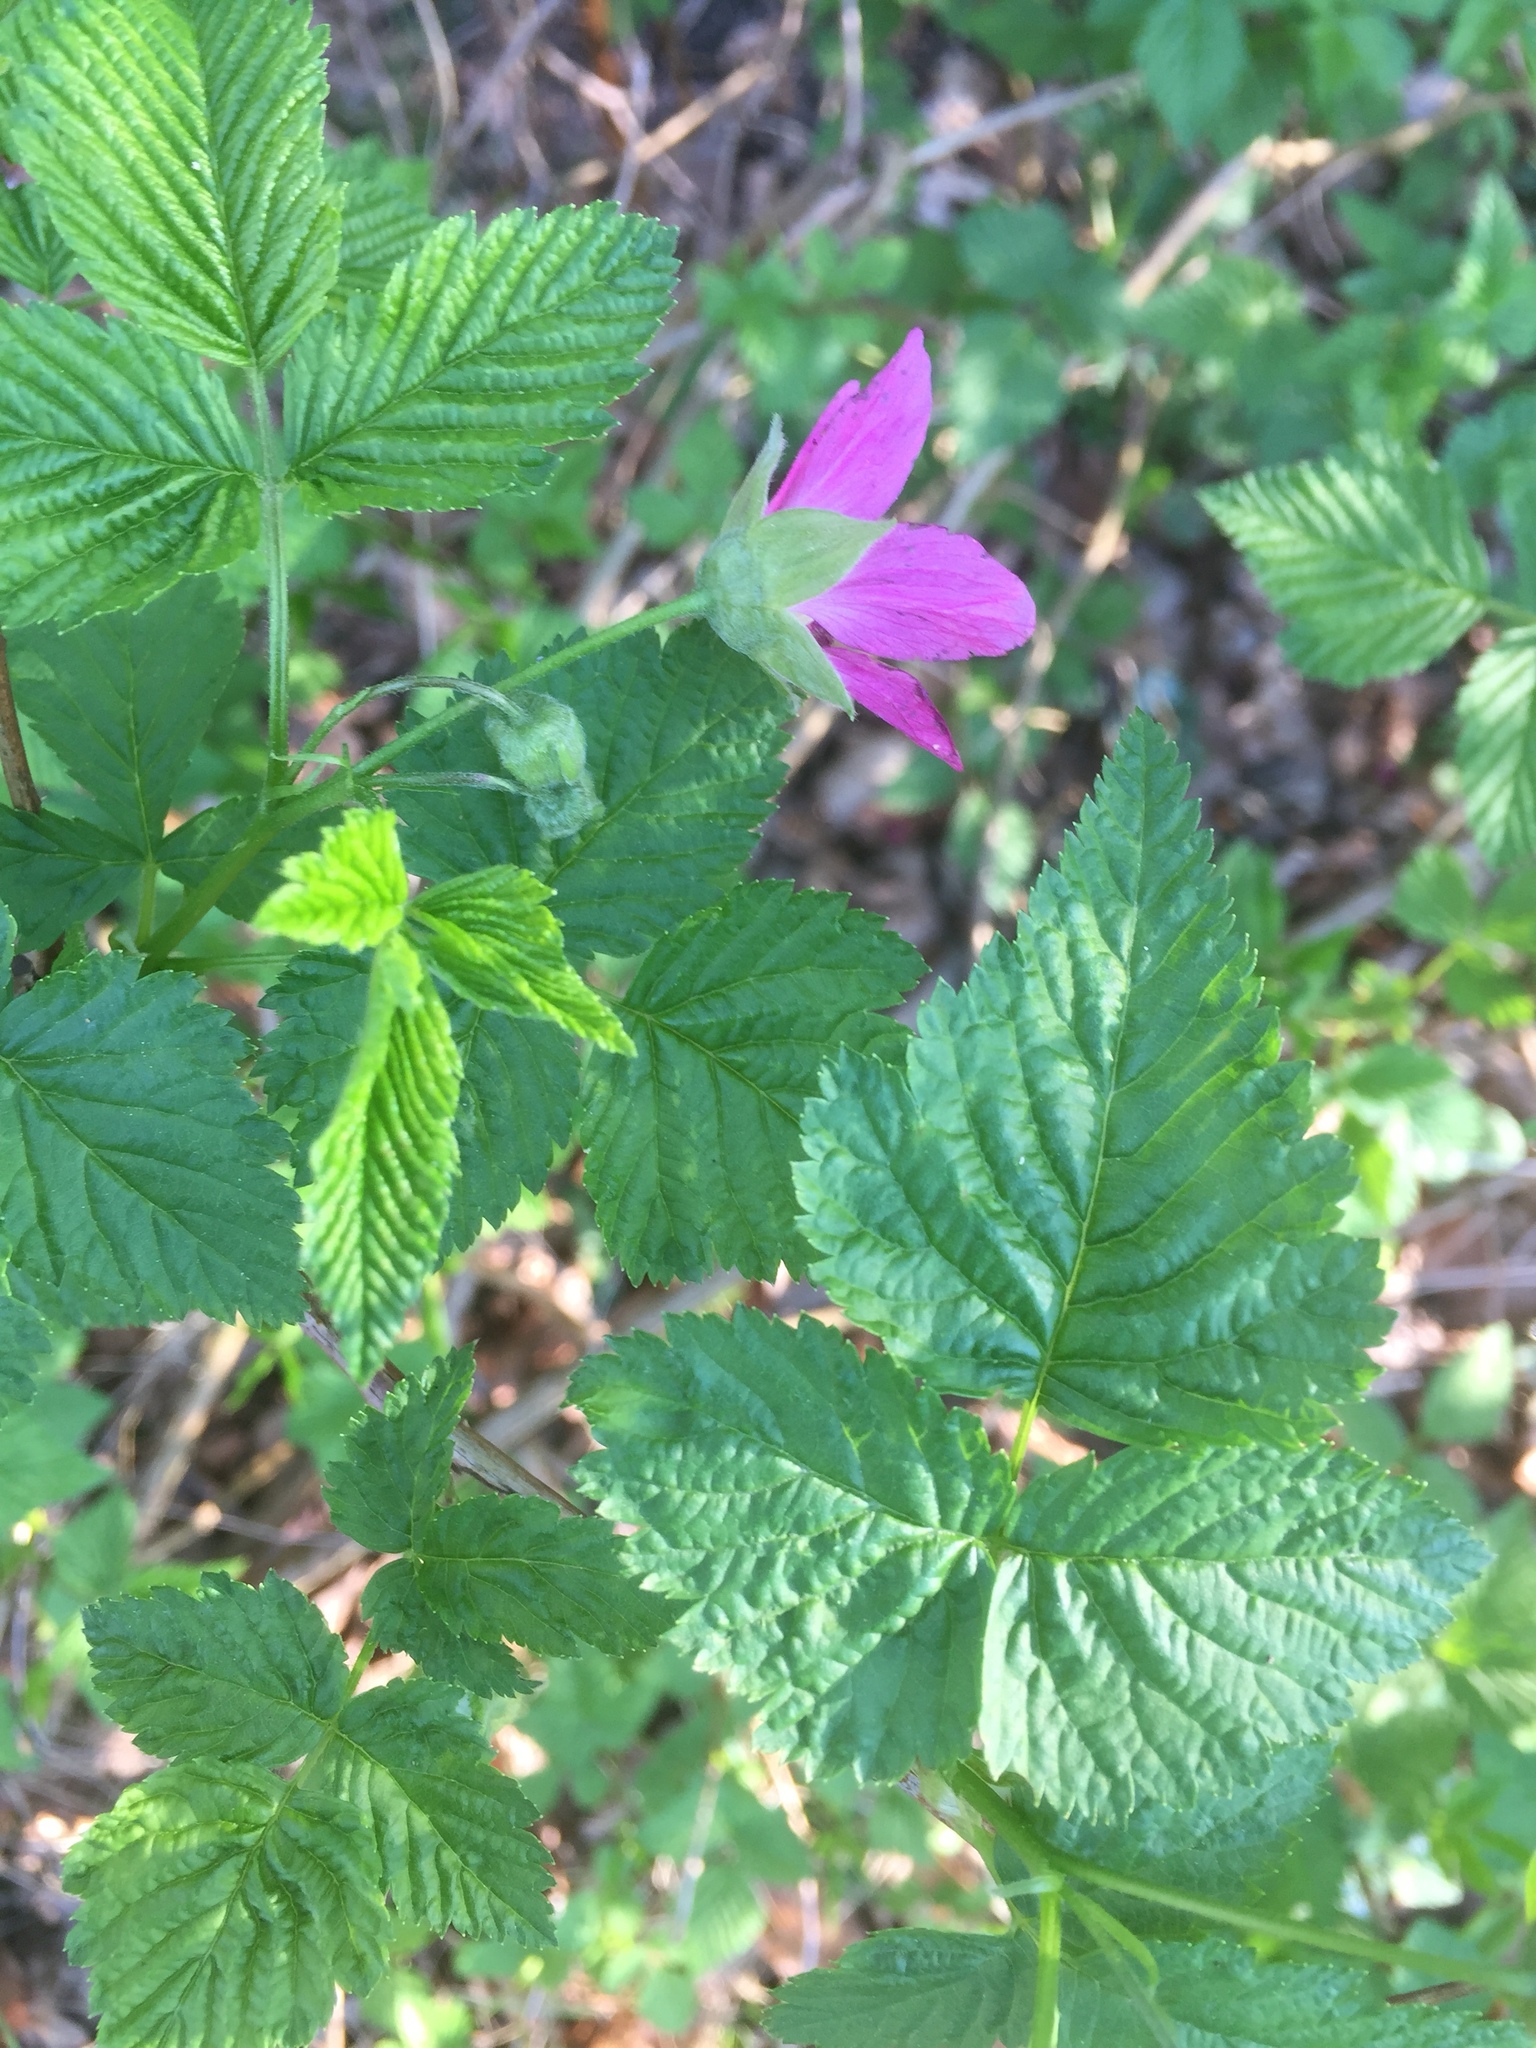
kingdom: Plantae
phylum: Tracheophyta
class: Magnoliopsida
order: Rosales
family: Rosaceae
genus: Rubus
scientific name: Rubus spectabilis
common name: Salmonberry
